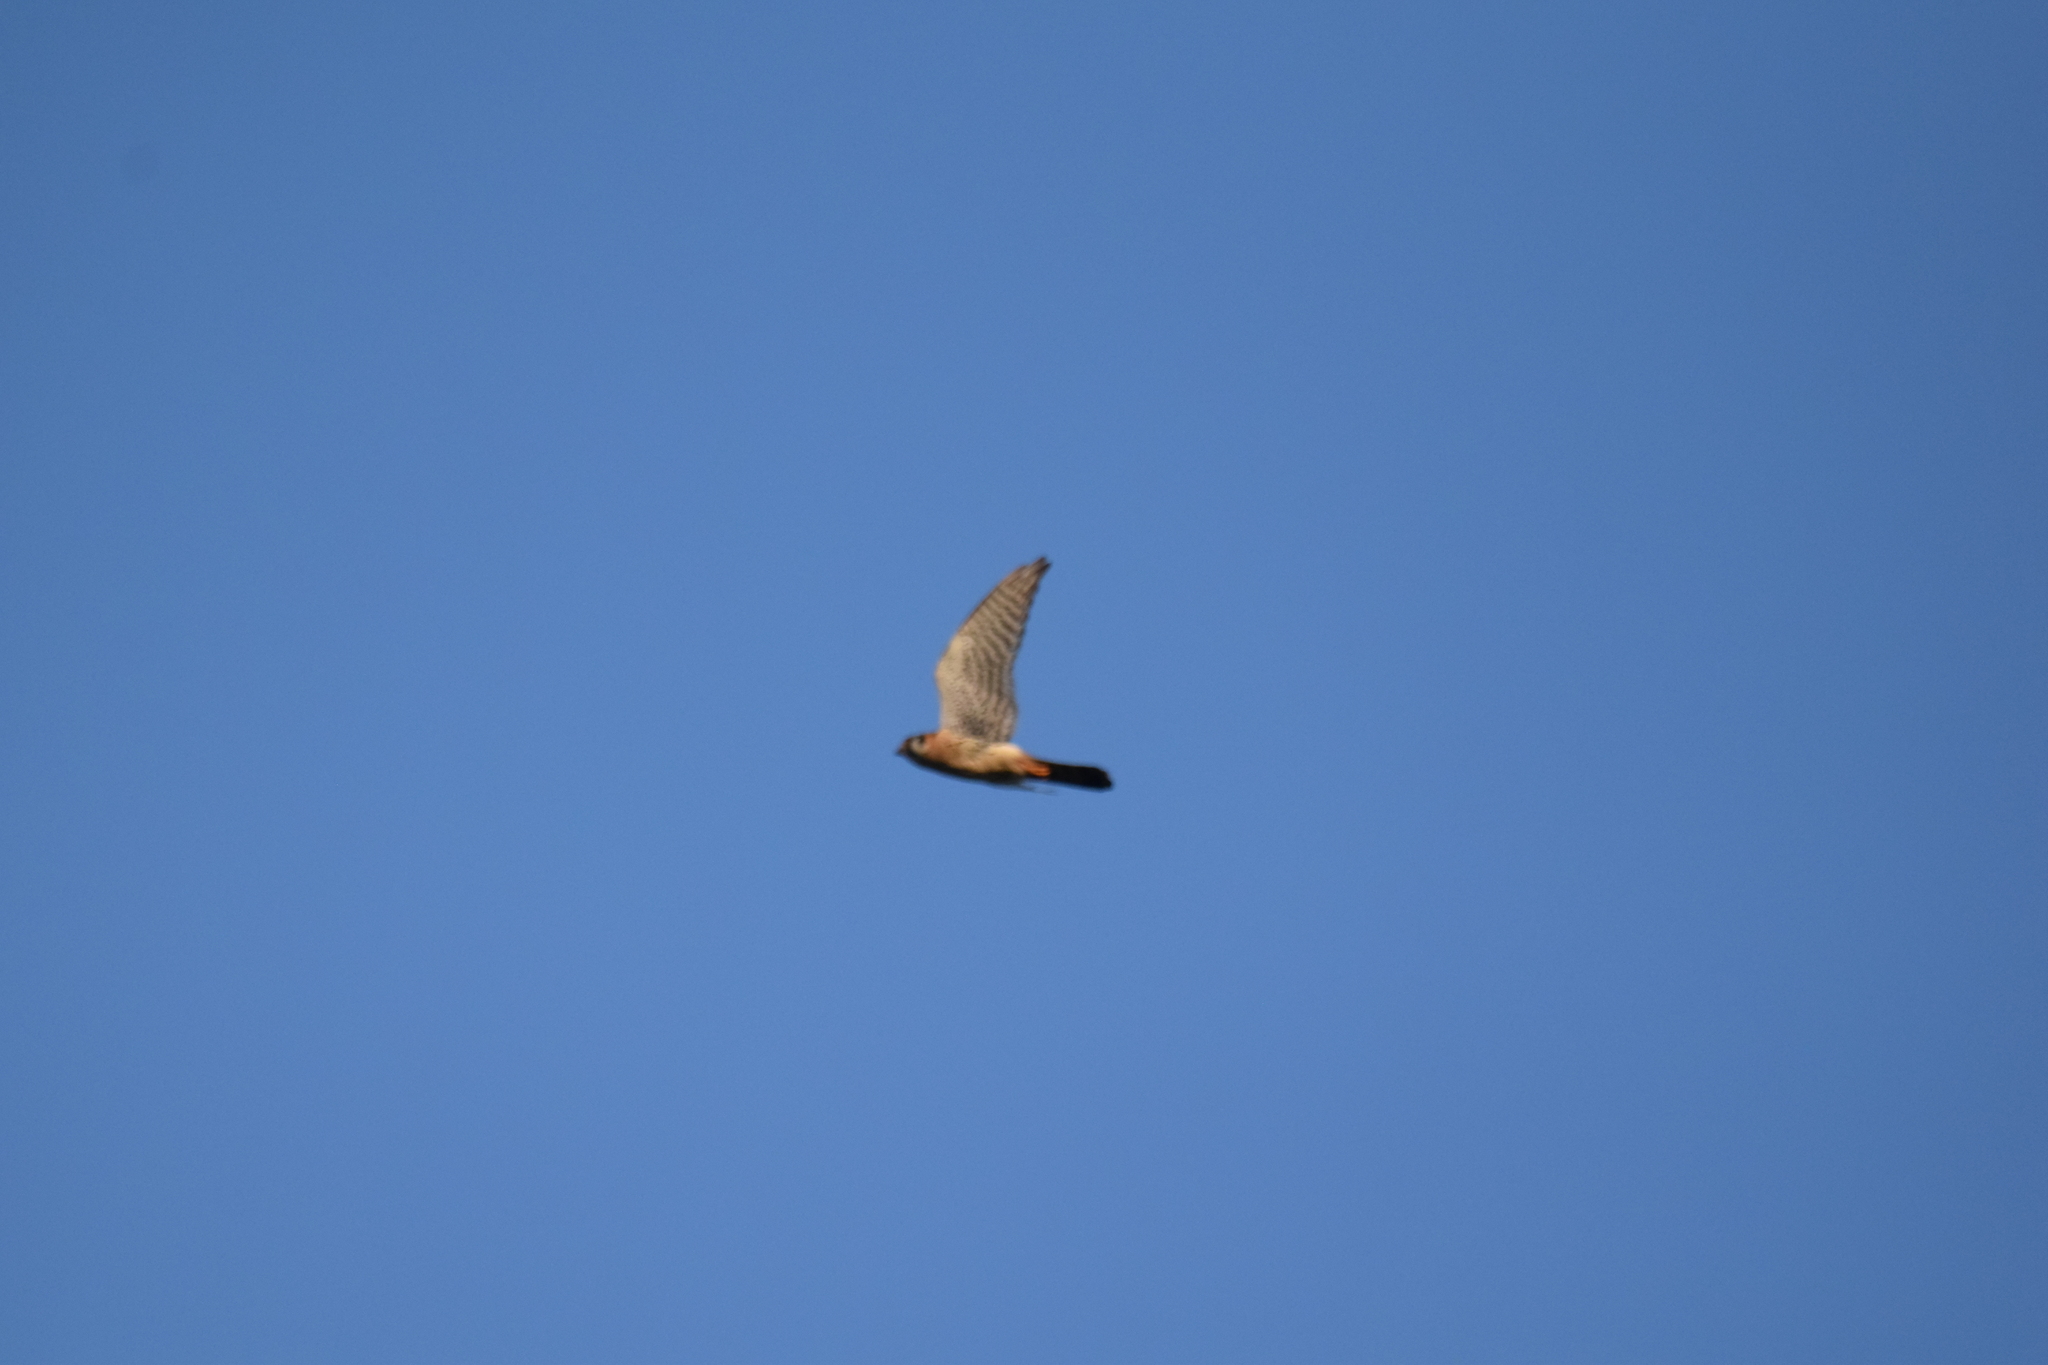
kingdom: Animalia
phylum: Chordata
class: Aves
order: Falconiformes
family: Falconidae
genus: Falco
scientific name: Falco sparverius
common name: American kestrel
